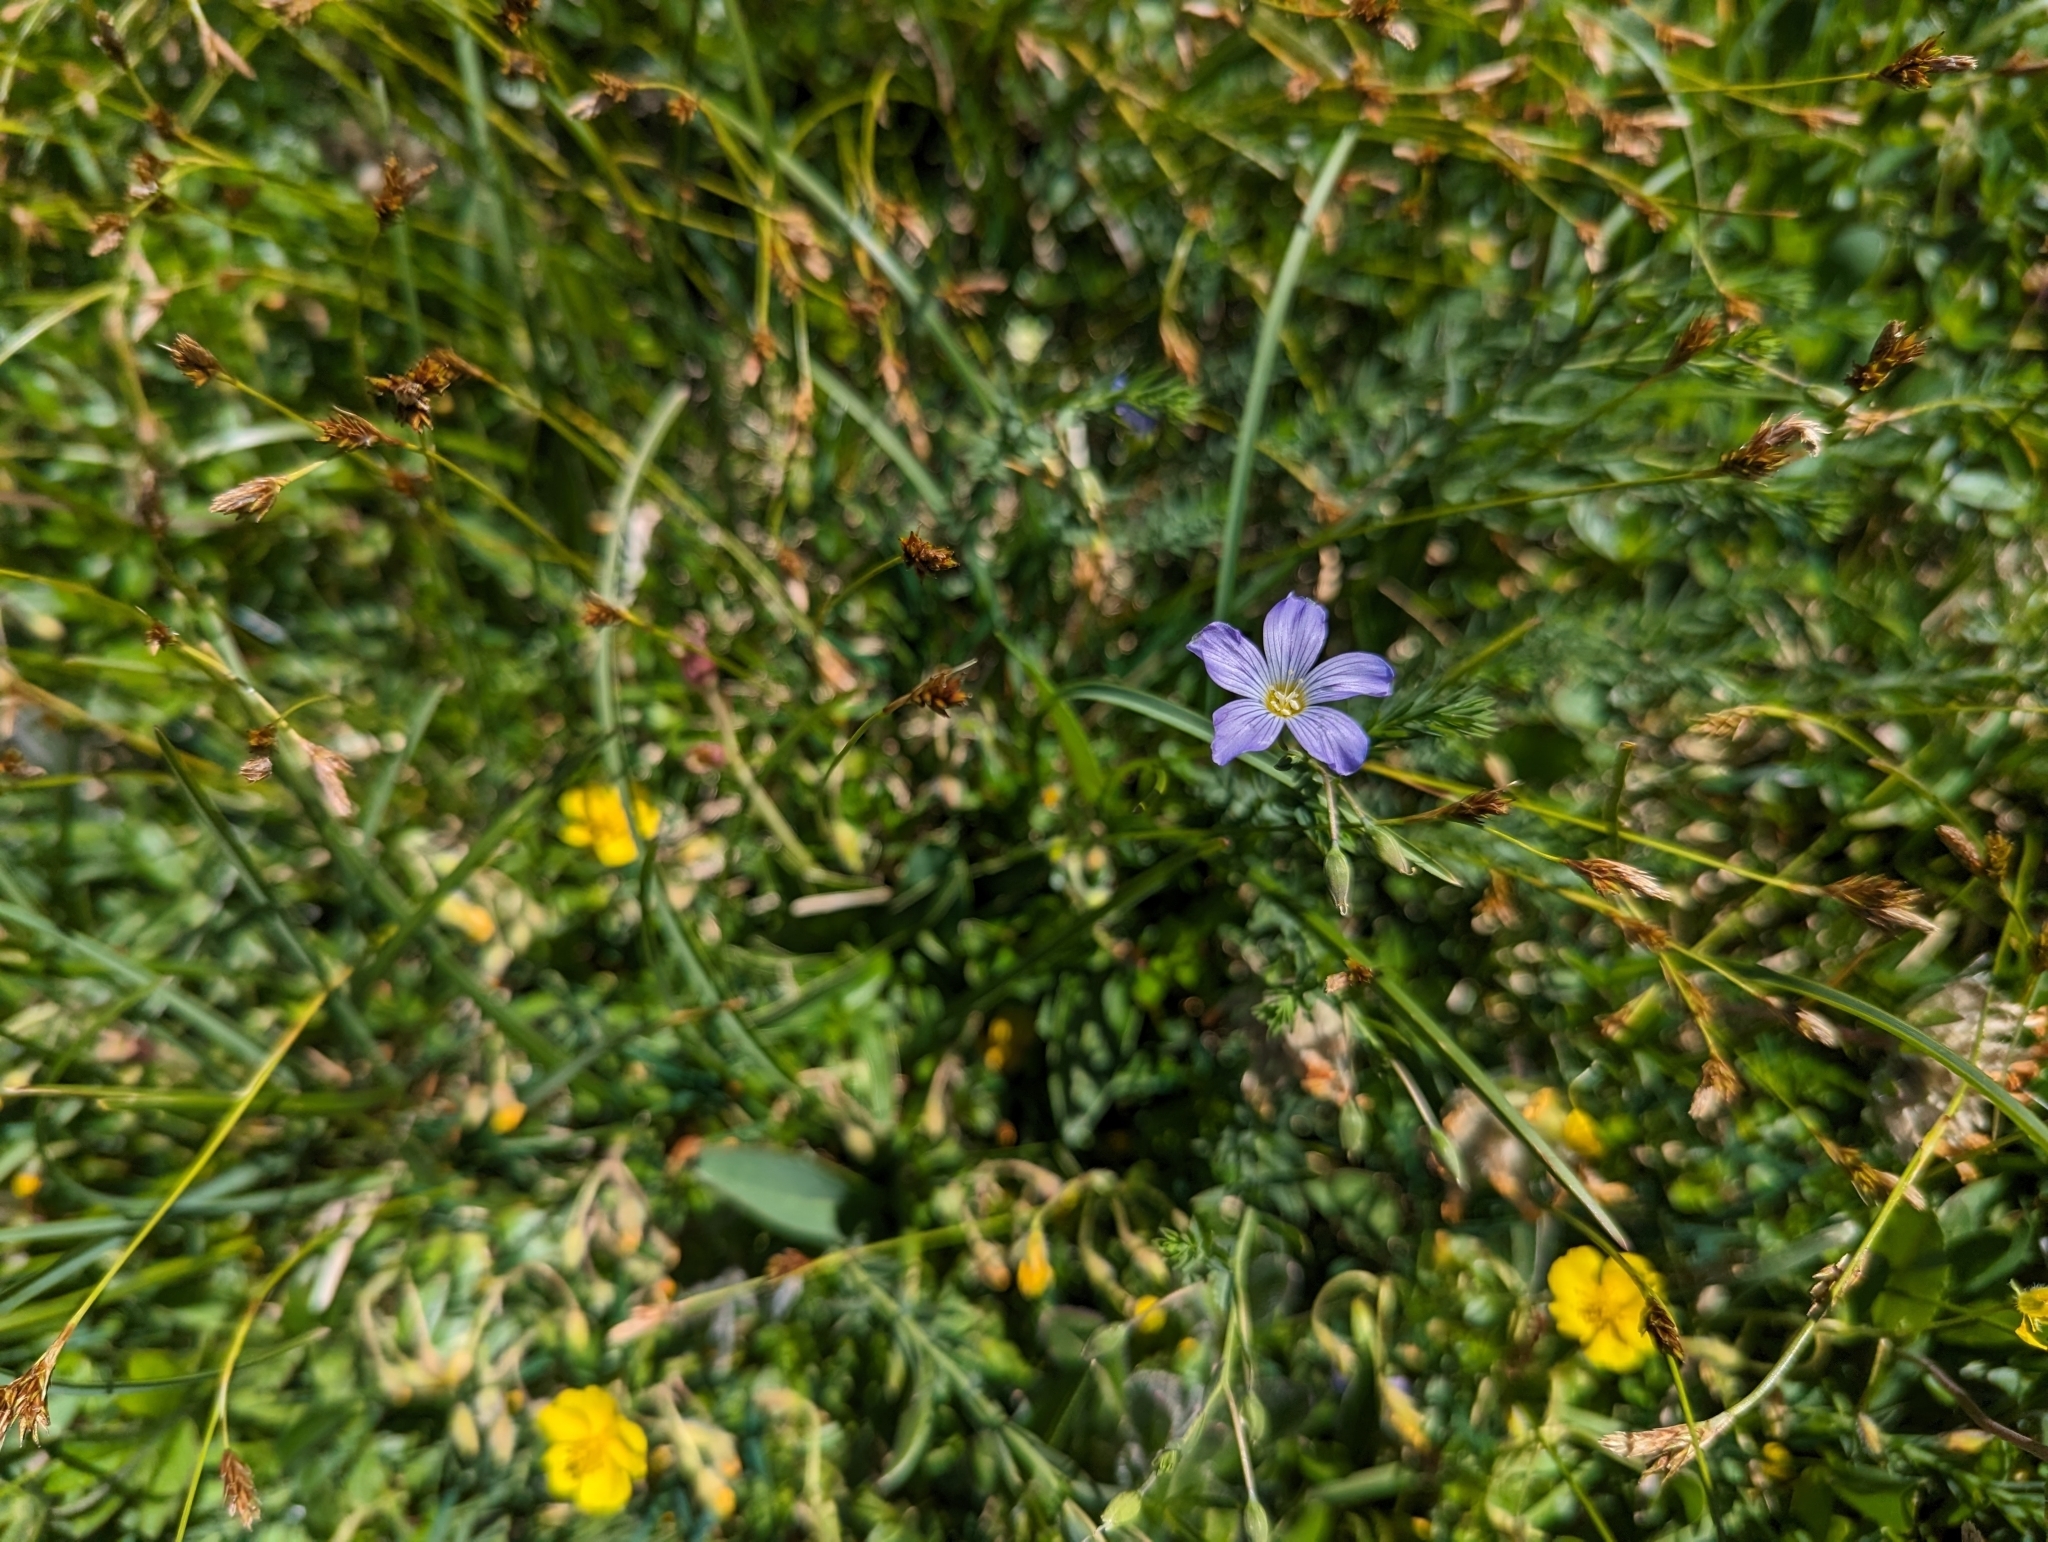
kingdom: Plantae
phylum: Tracheophyta
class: Magnoliopsida
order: Malpighiales
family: Linaceae
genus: Linum
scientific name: Linum alpinum
